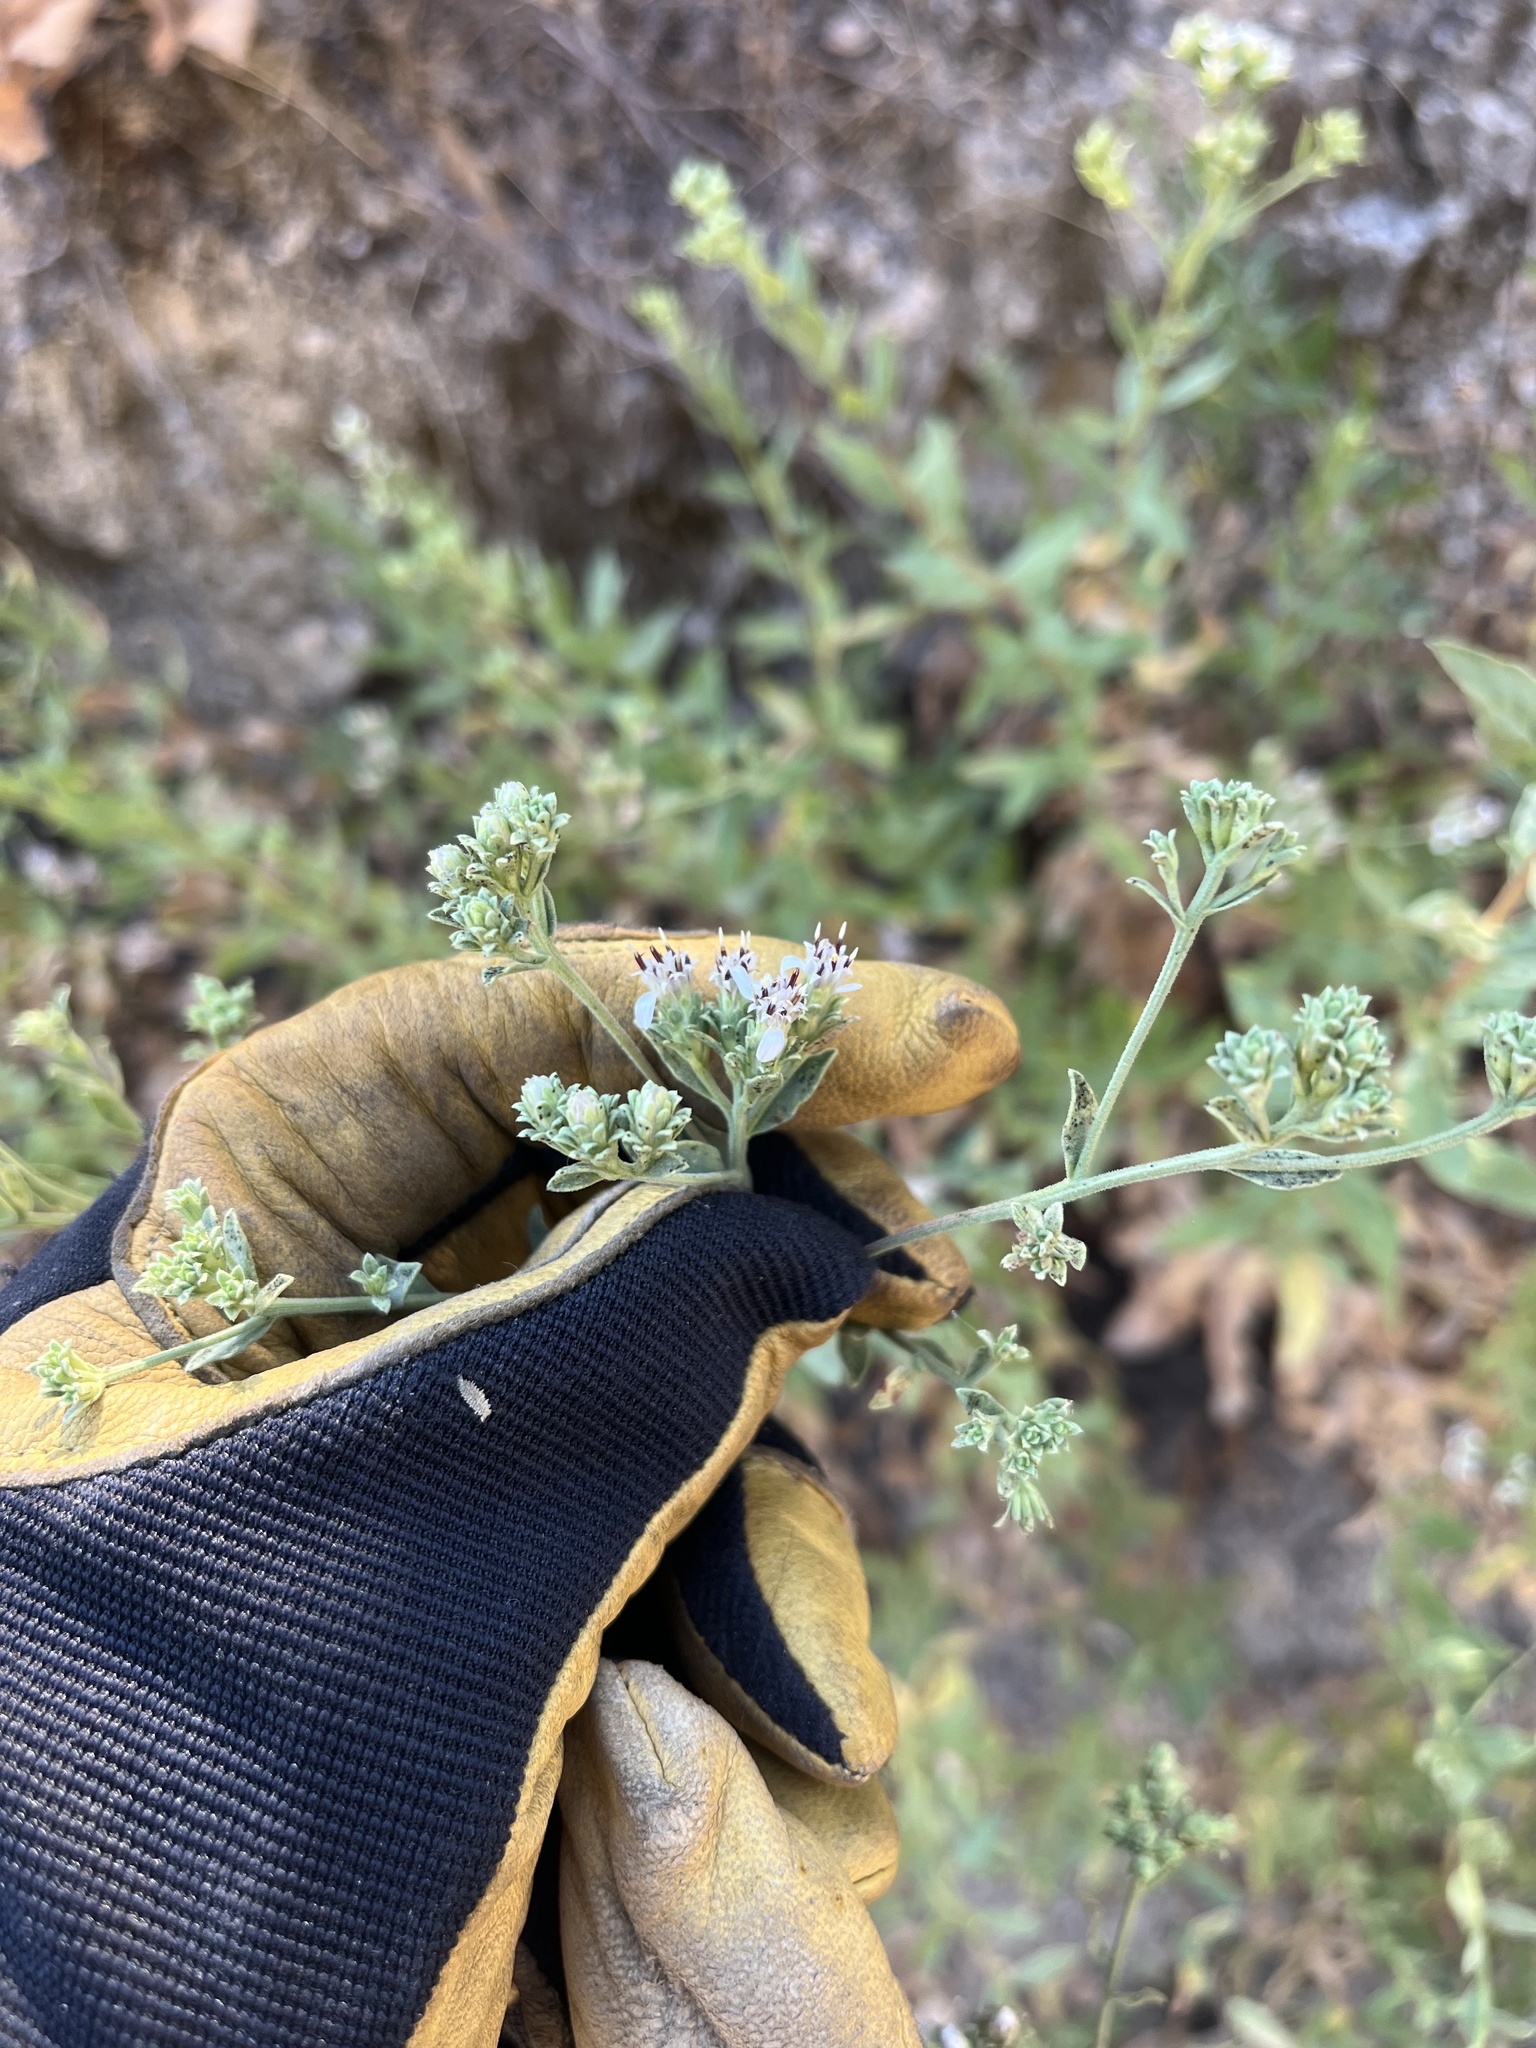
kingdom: Plantae
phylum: Tracheophyta
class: Magnoliopsida
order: Asterales
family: Asteraceae
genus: Sericocarpus
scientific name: Sericocarpus oregonensis
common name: Oregon white-top aster
